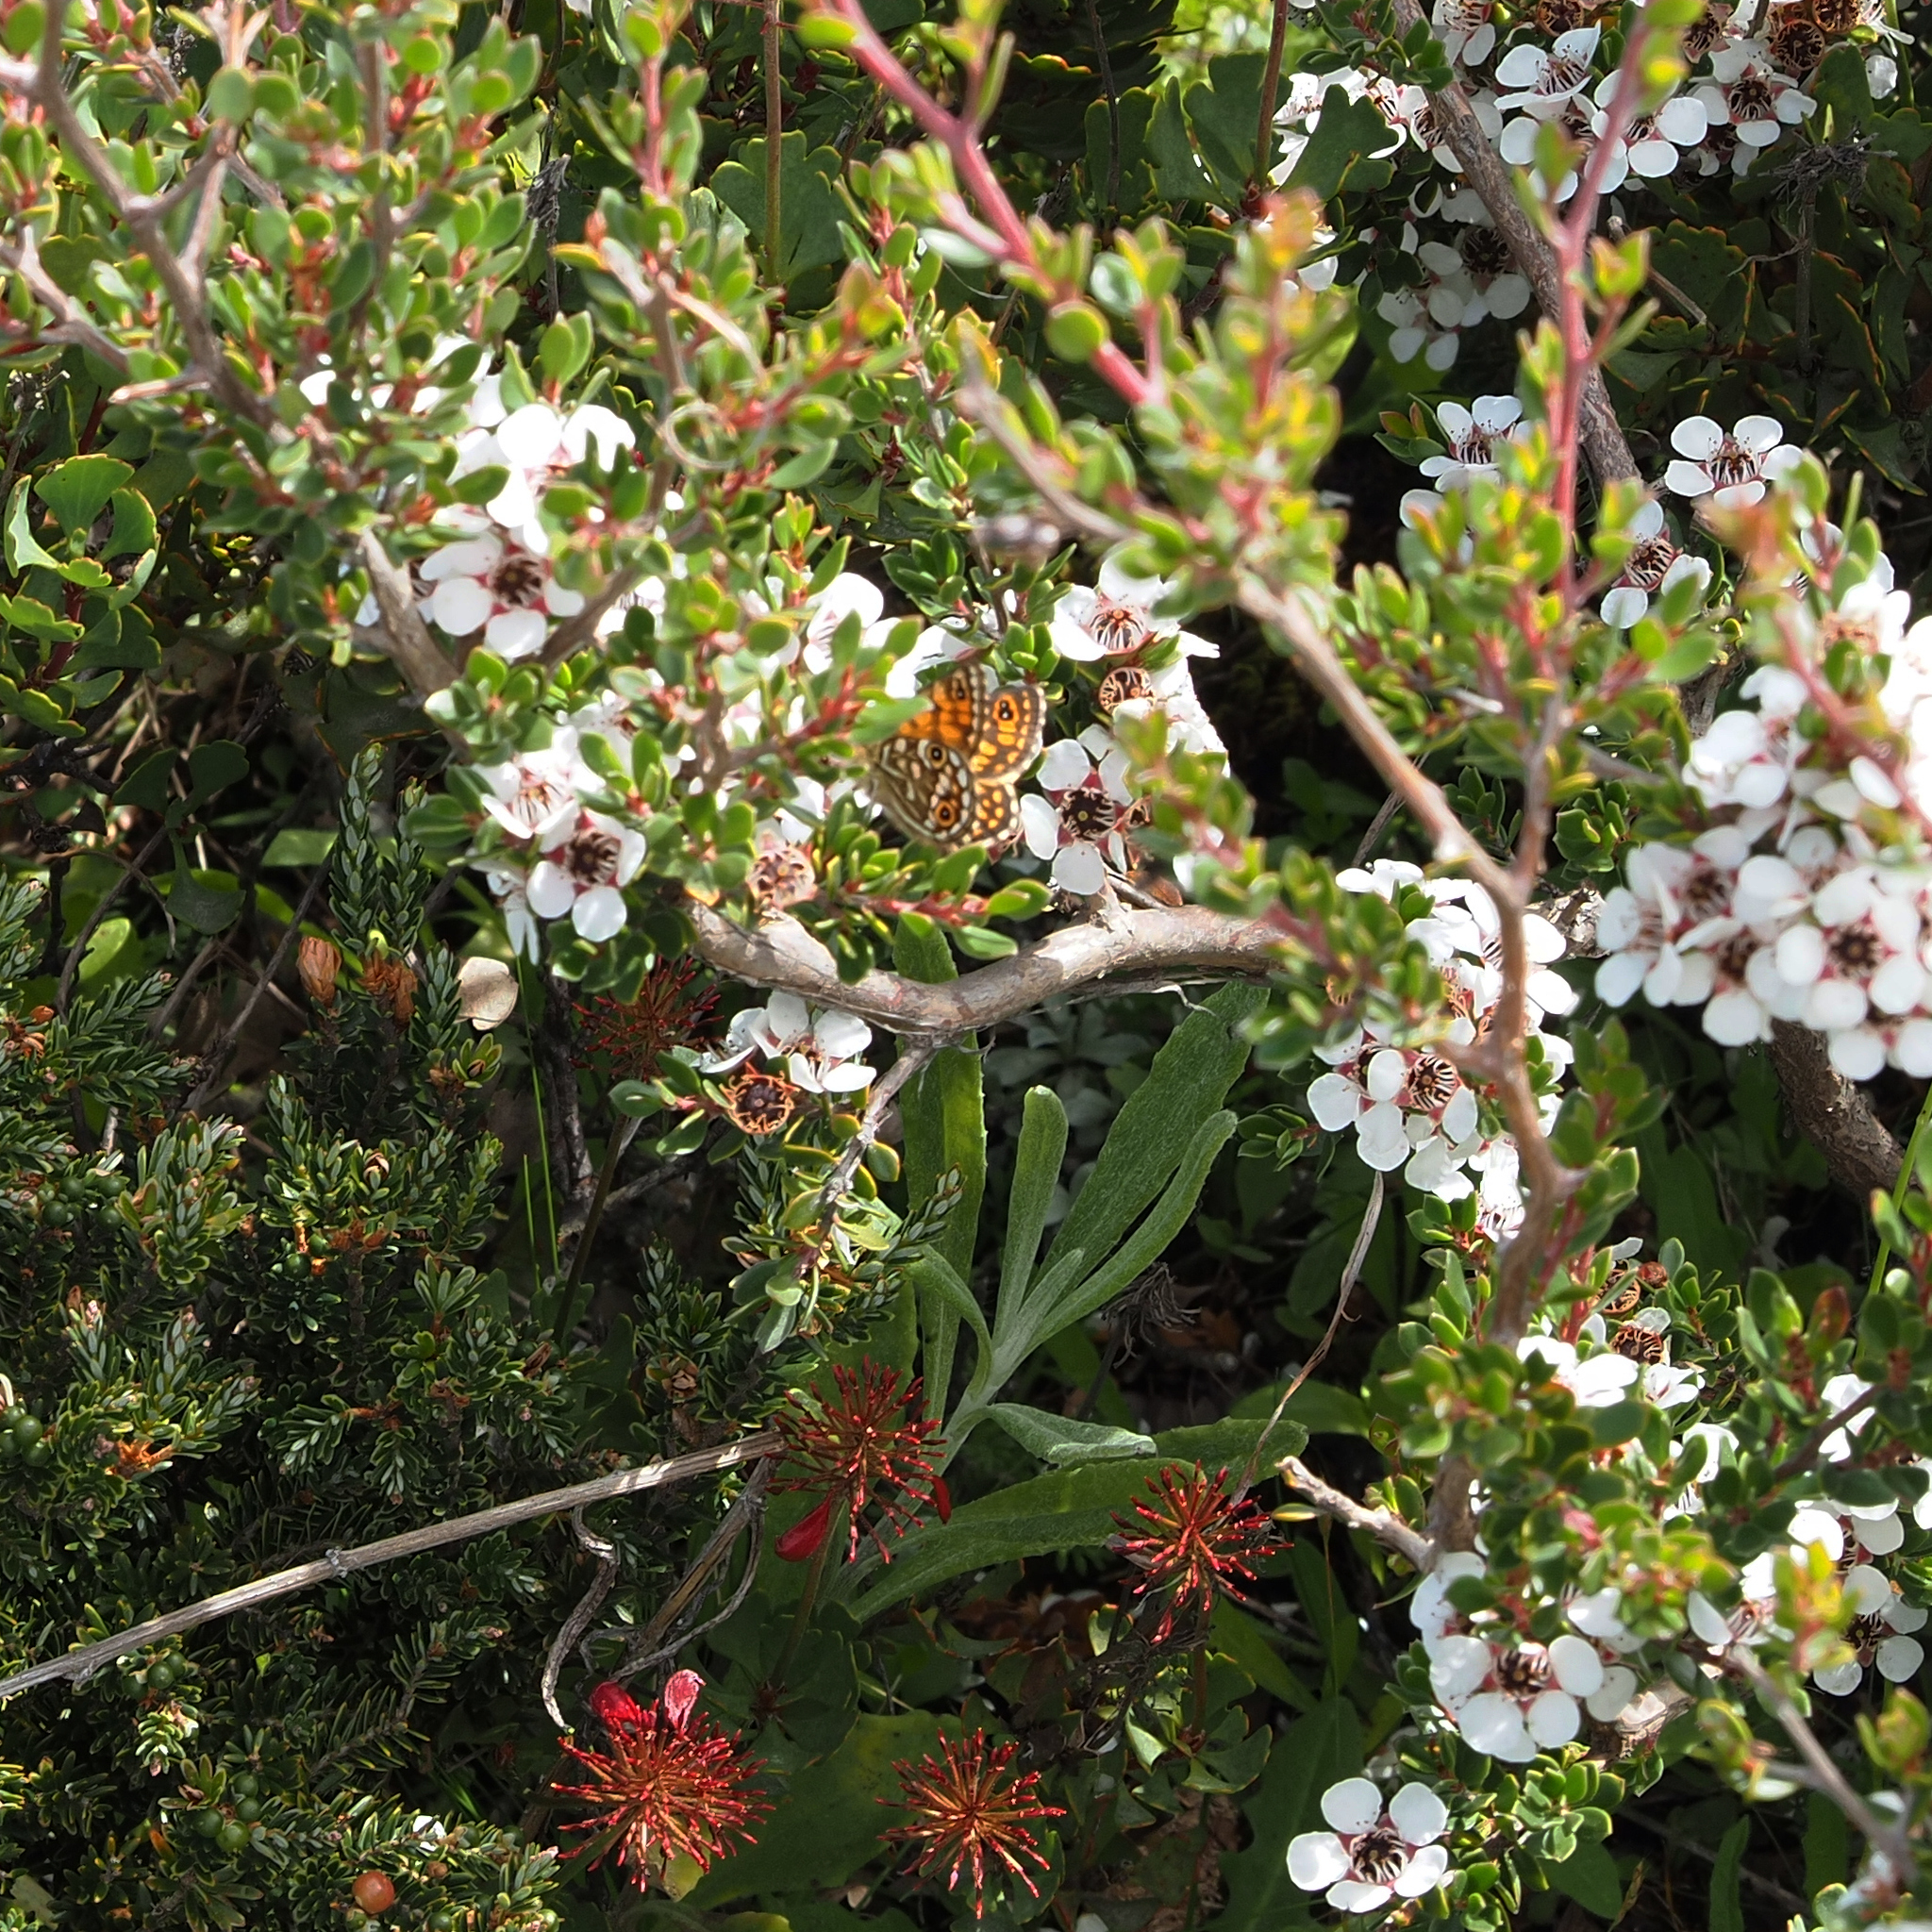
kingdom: Animalia
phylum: Arthropoda
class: Insecta
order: Lepidoptera
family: Nymphalidae
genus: Oreixenica
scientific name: Oreixenica lathoniella
